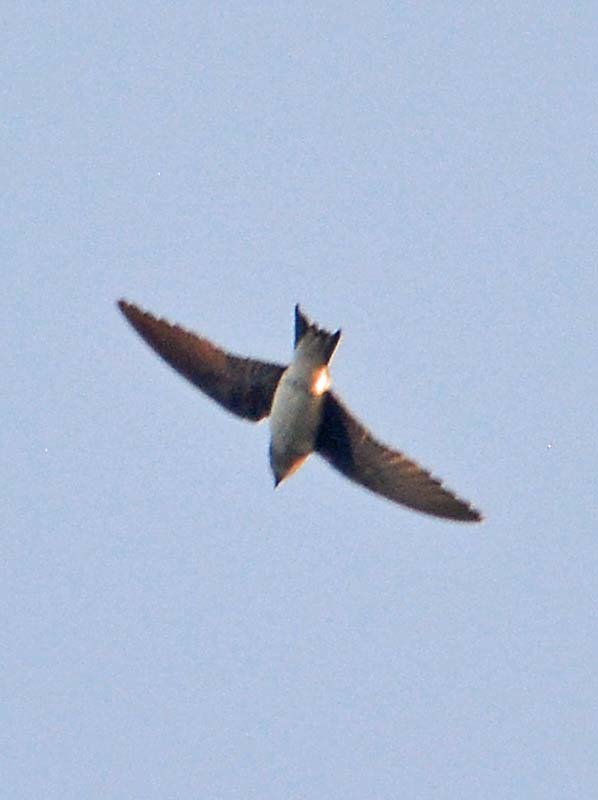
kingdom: Animalia
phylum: Chordata
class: Aves
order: Passeriformes
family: Hirundinidae
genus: Progne
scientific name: Progne chalybea
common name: Grey-breasted martin
